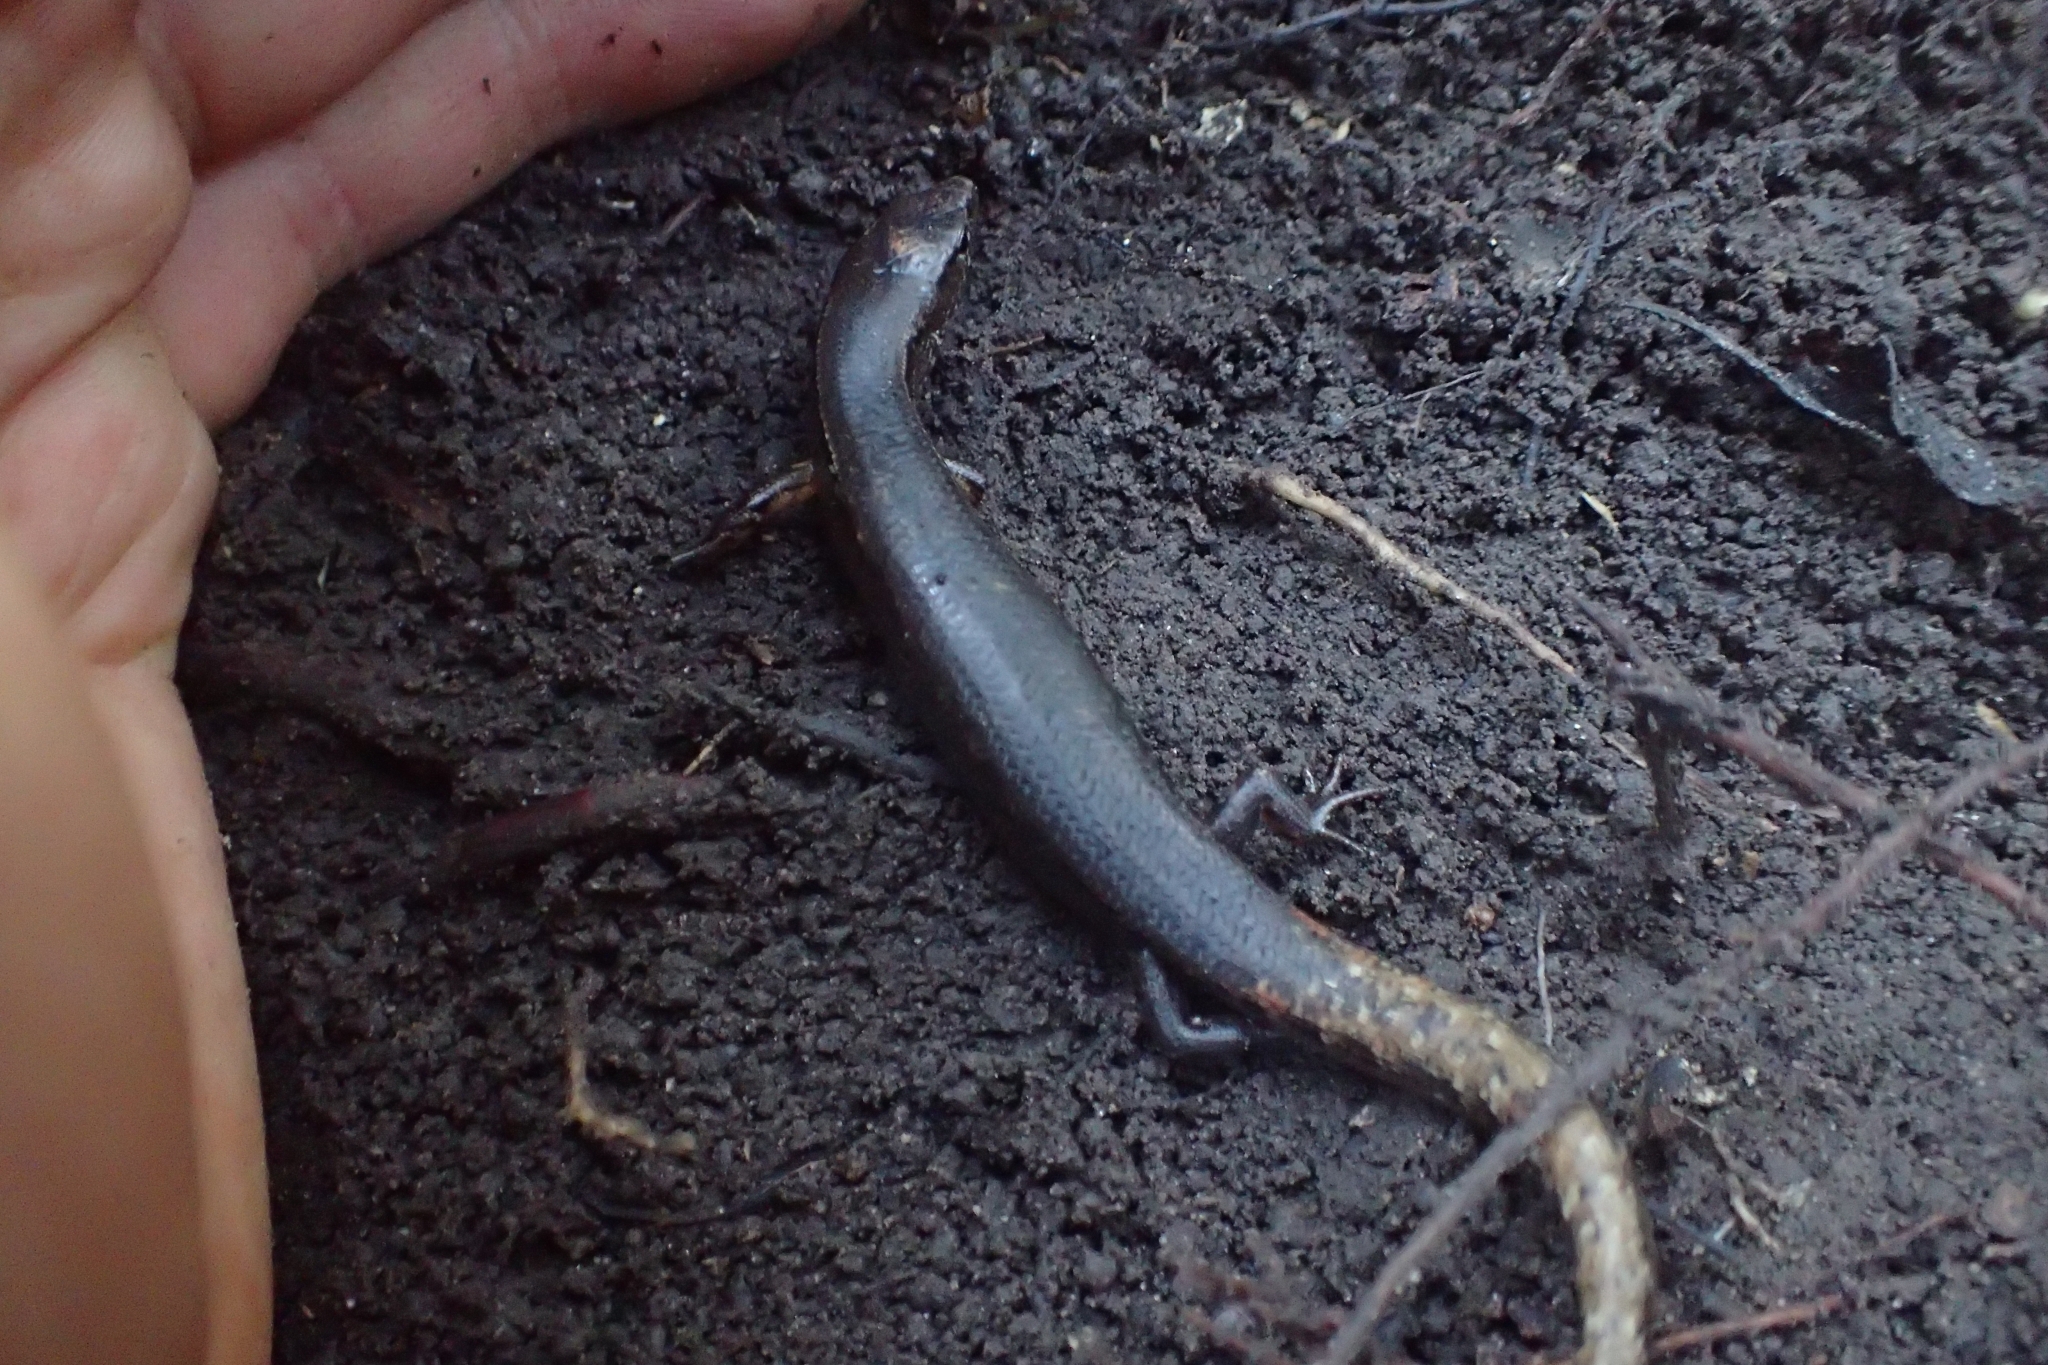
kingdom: Animalia
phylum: Chordata
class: Squamata
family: Scincidae
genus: Oligosoma
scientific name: Oligosoma ornatum
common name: Gray's ornate skink
